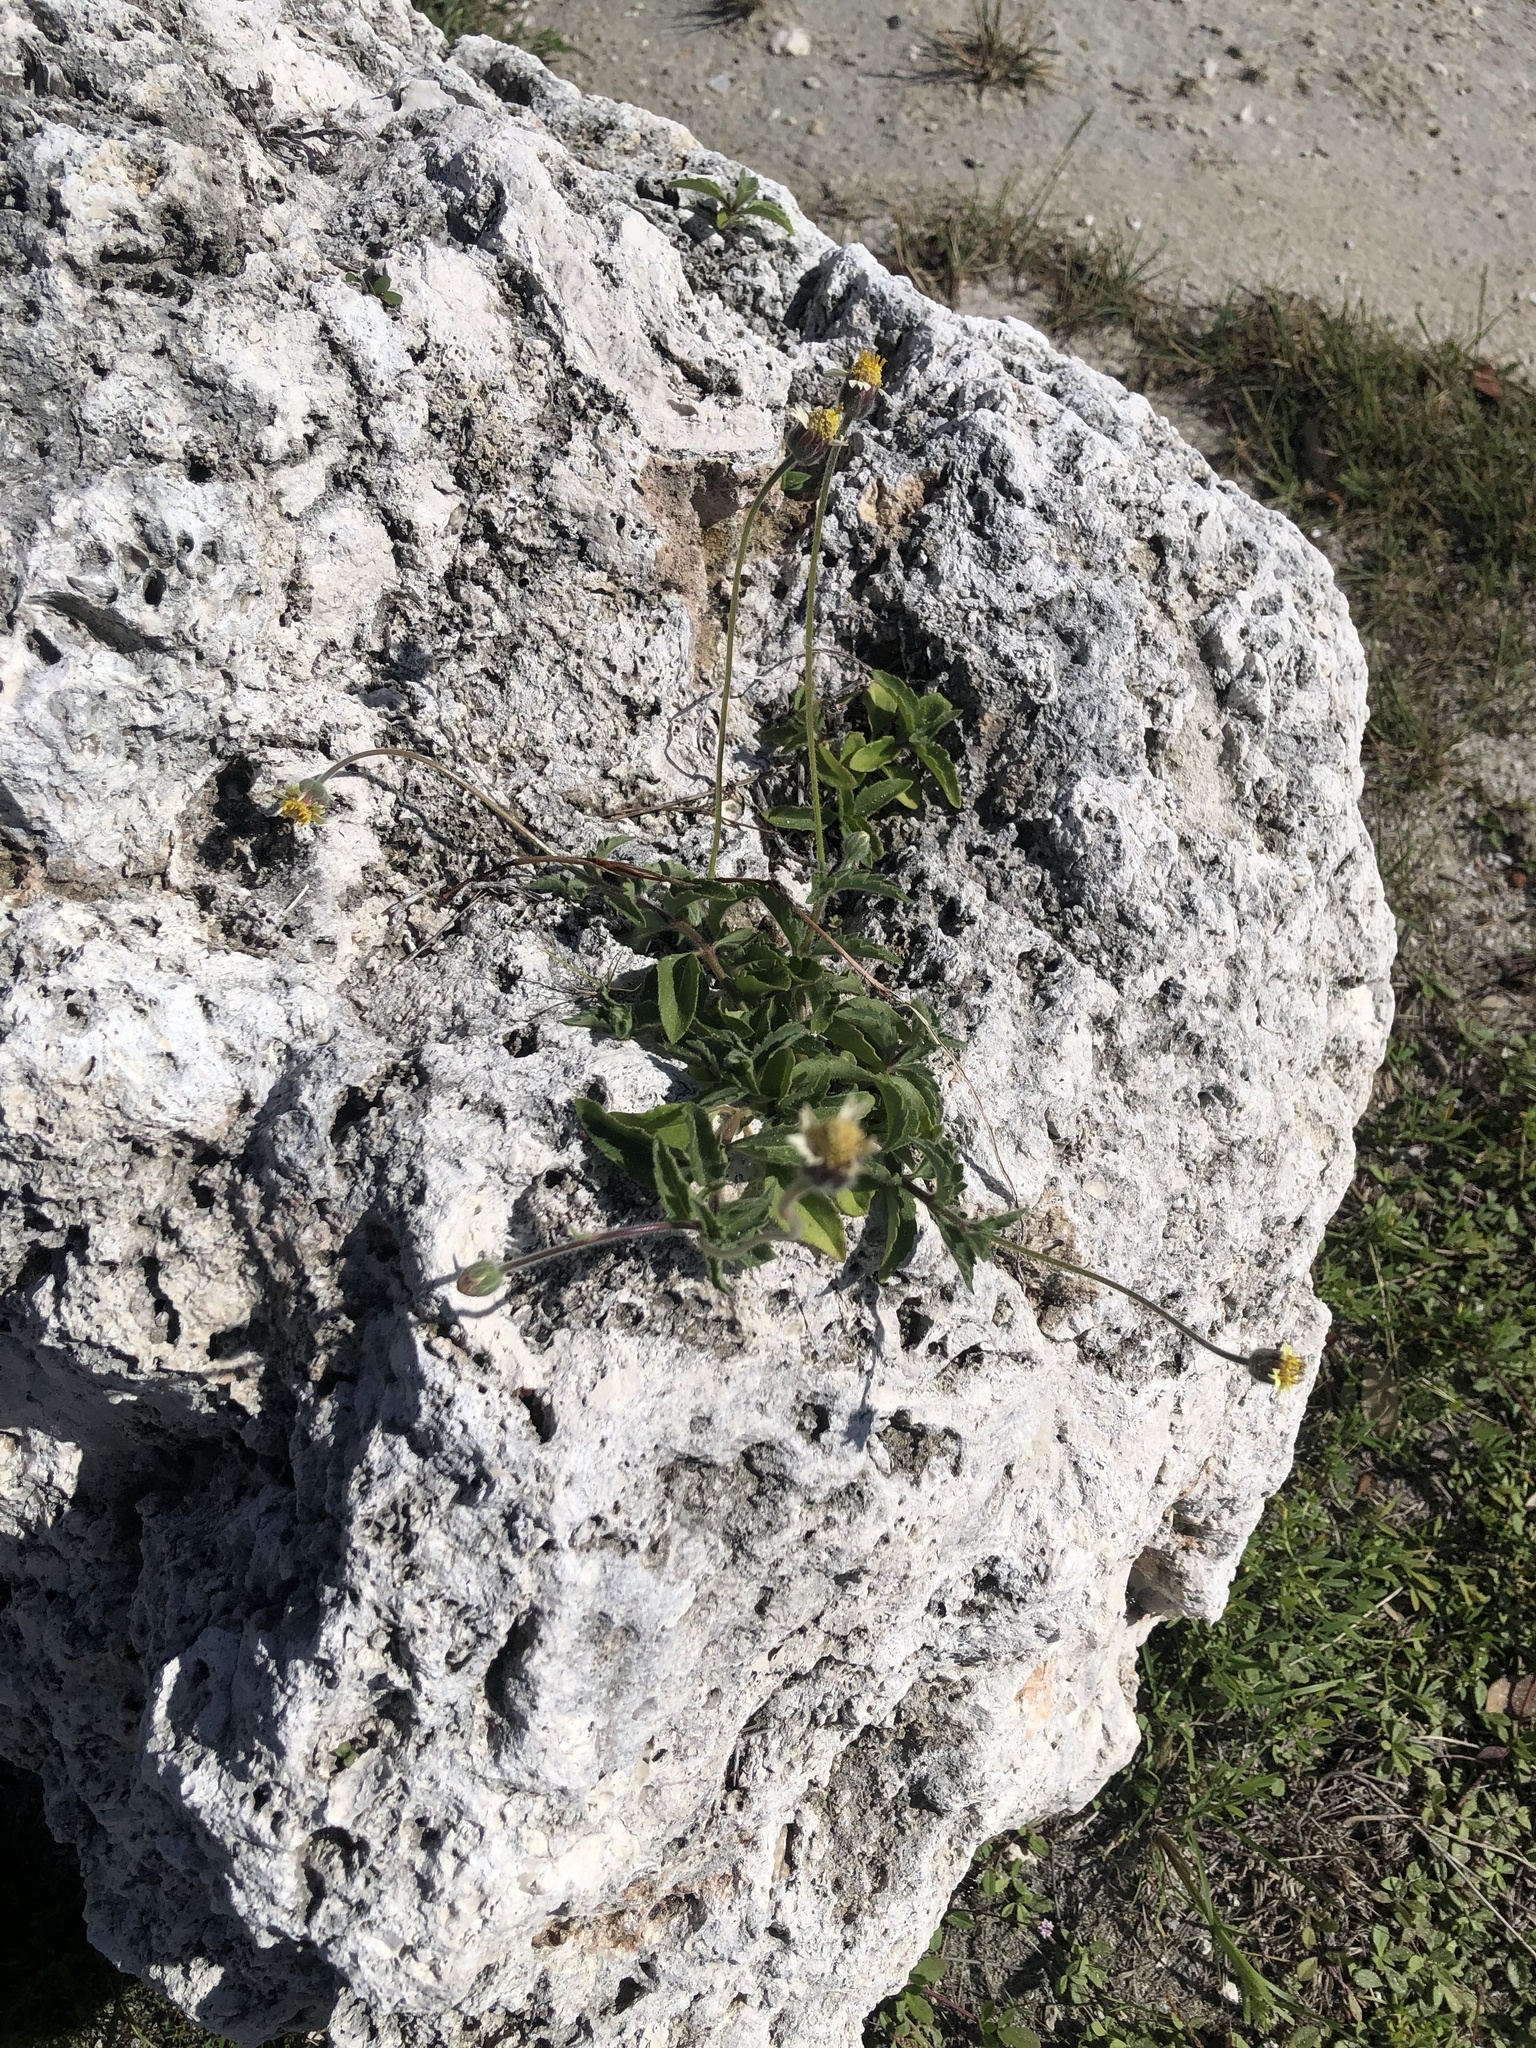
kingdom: Plantae
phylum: Tracheophyta
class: Magnoliopsida
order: Asterales
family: Asteraceae
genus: Tridax
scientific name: Tridax procumbens
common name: Coatbuttons
